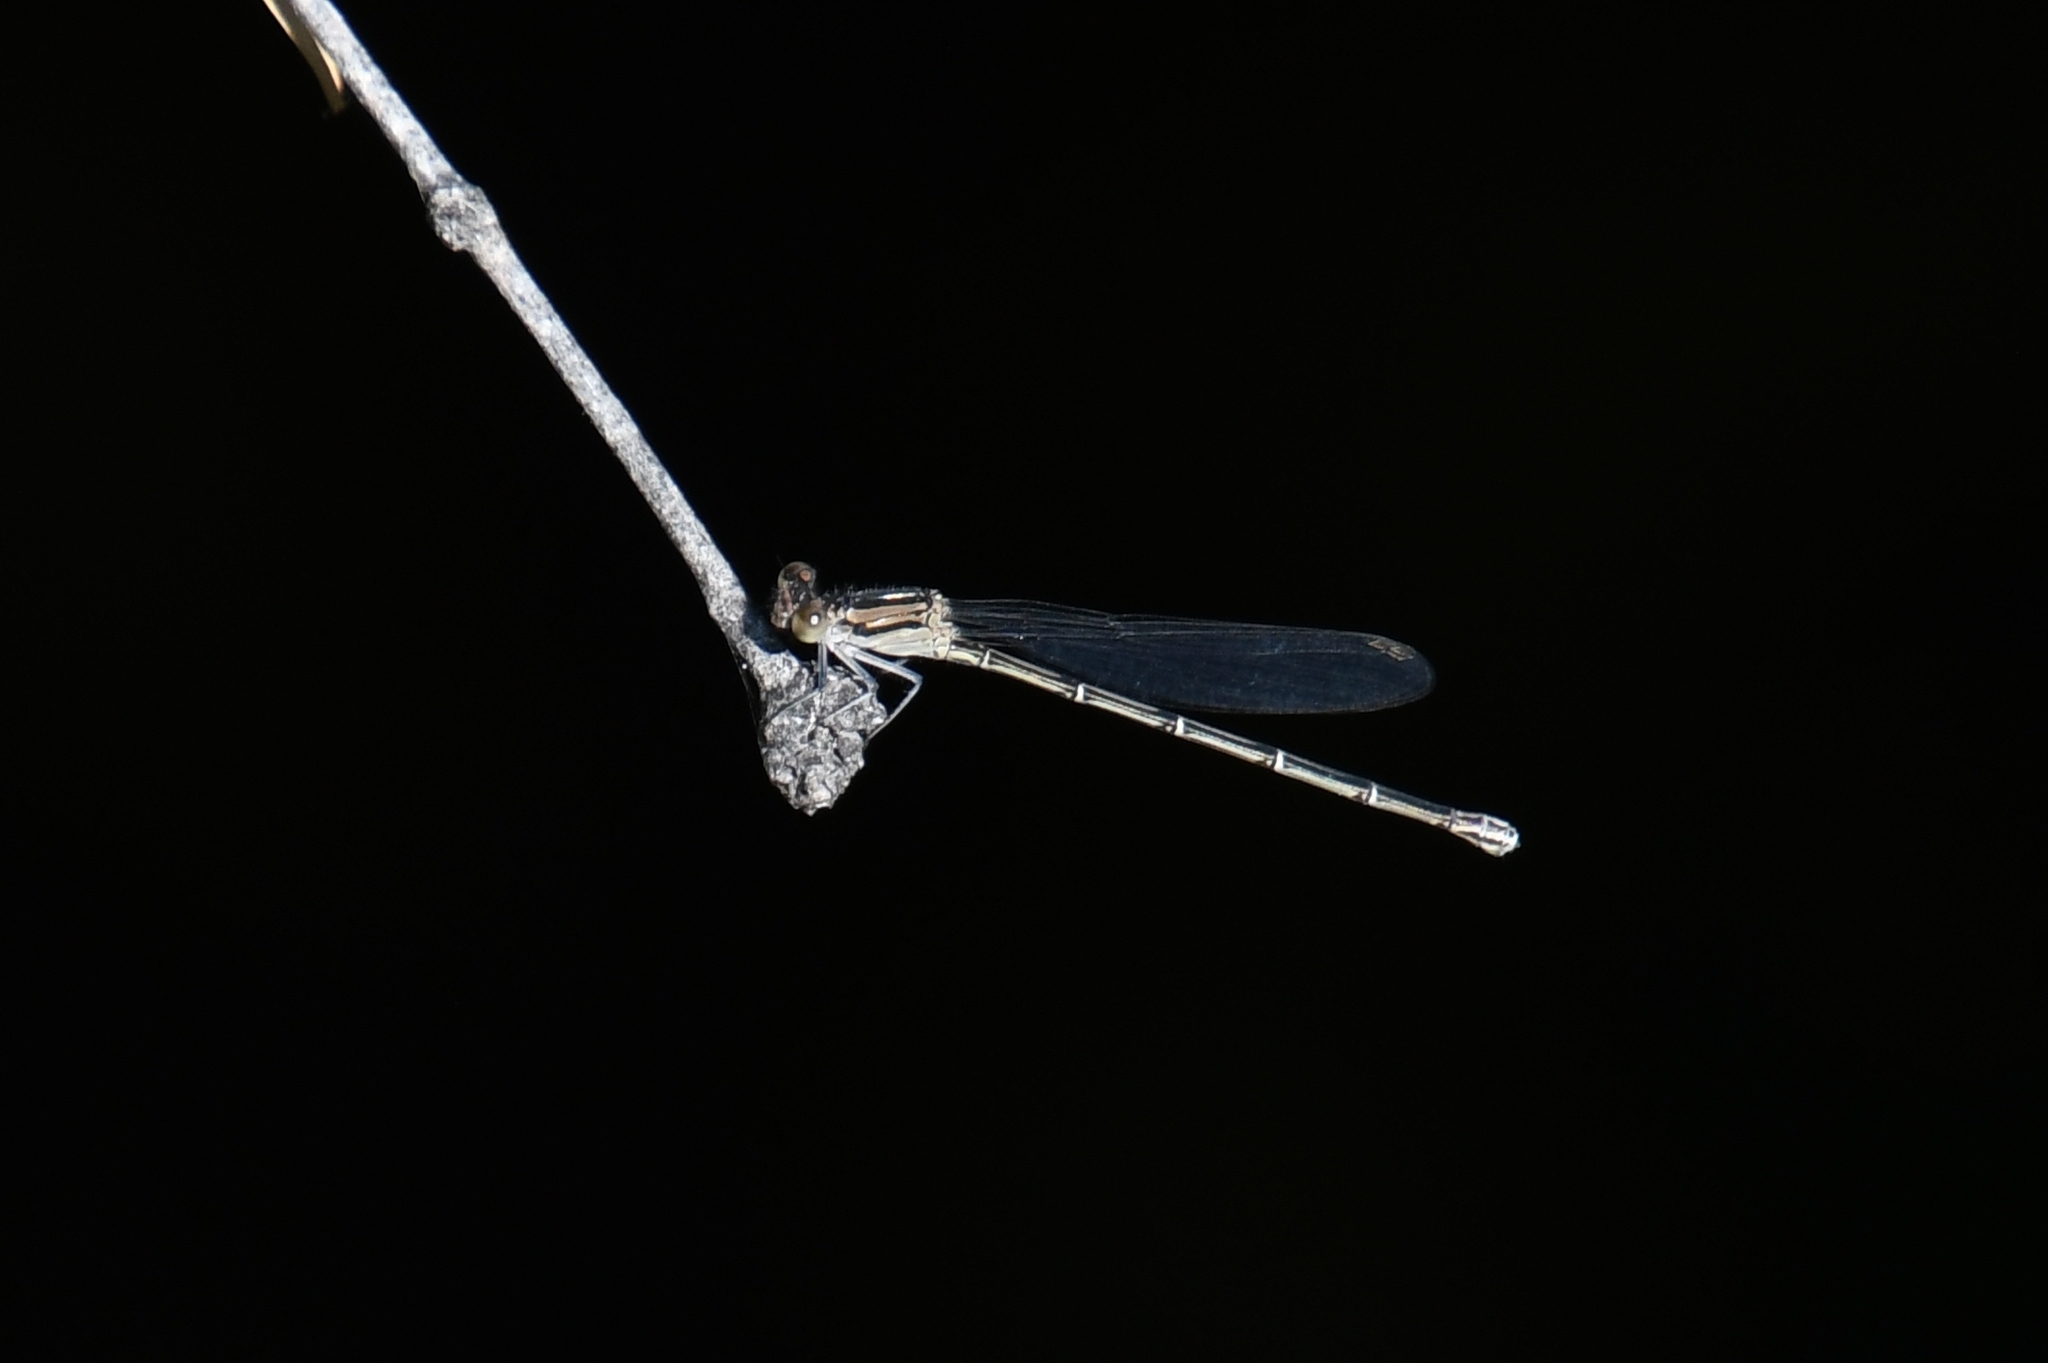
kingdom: Animalia
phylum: Arthropoda
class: Insecta
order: Odonata
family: Coenagrionidae
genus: Argia
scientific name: Argia translata
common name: Dusky dancer
